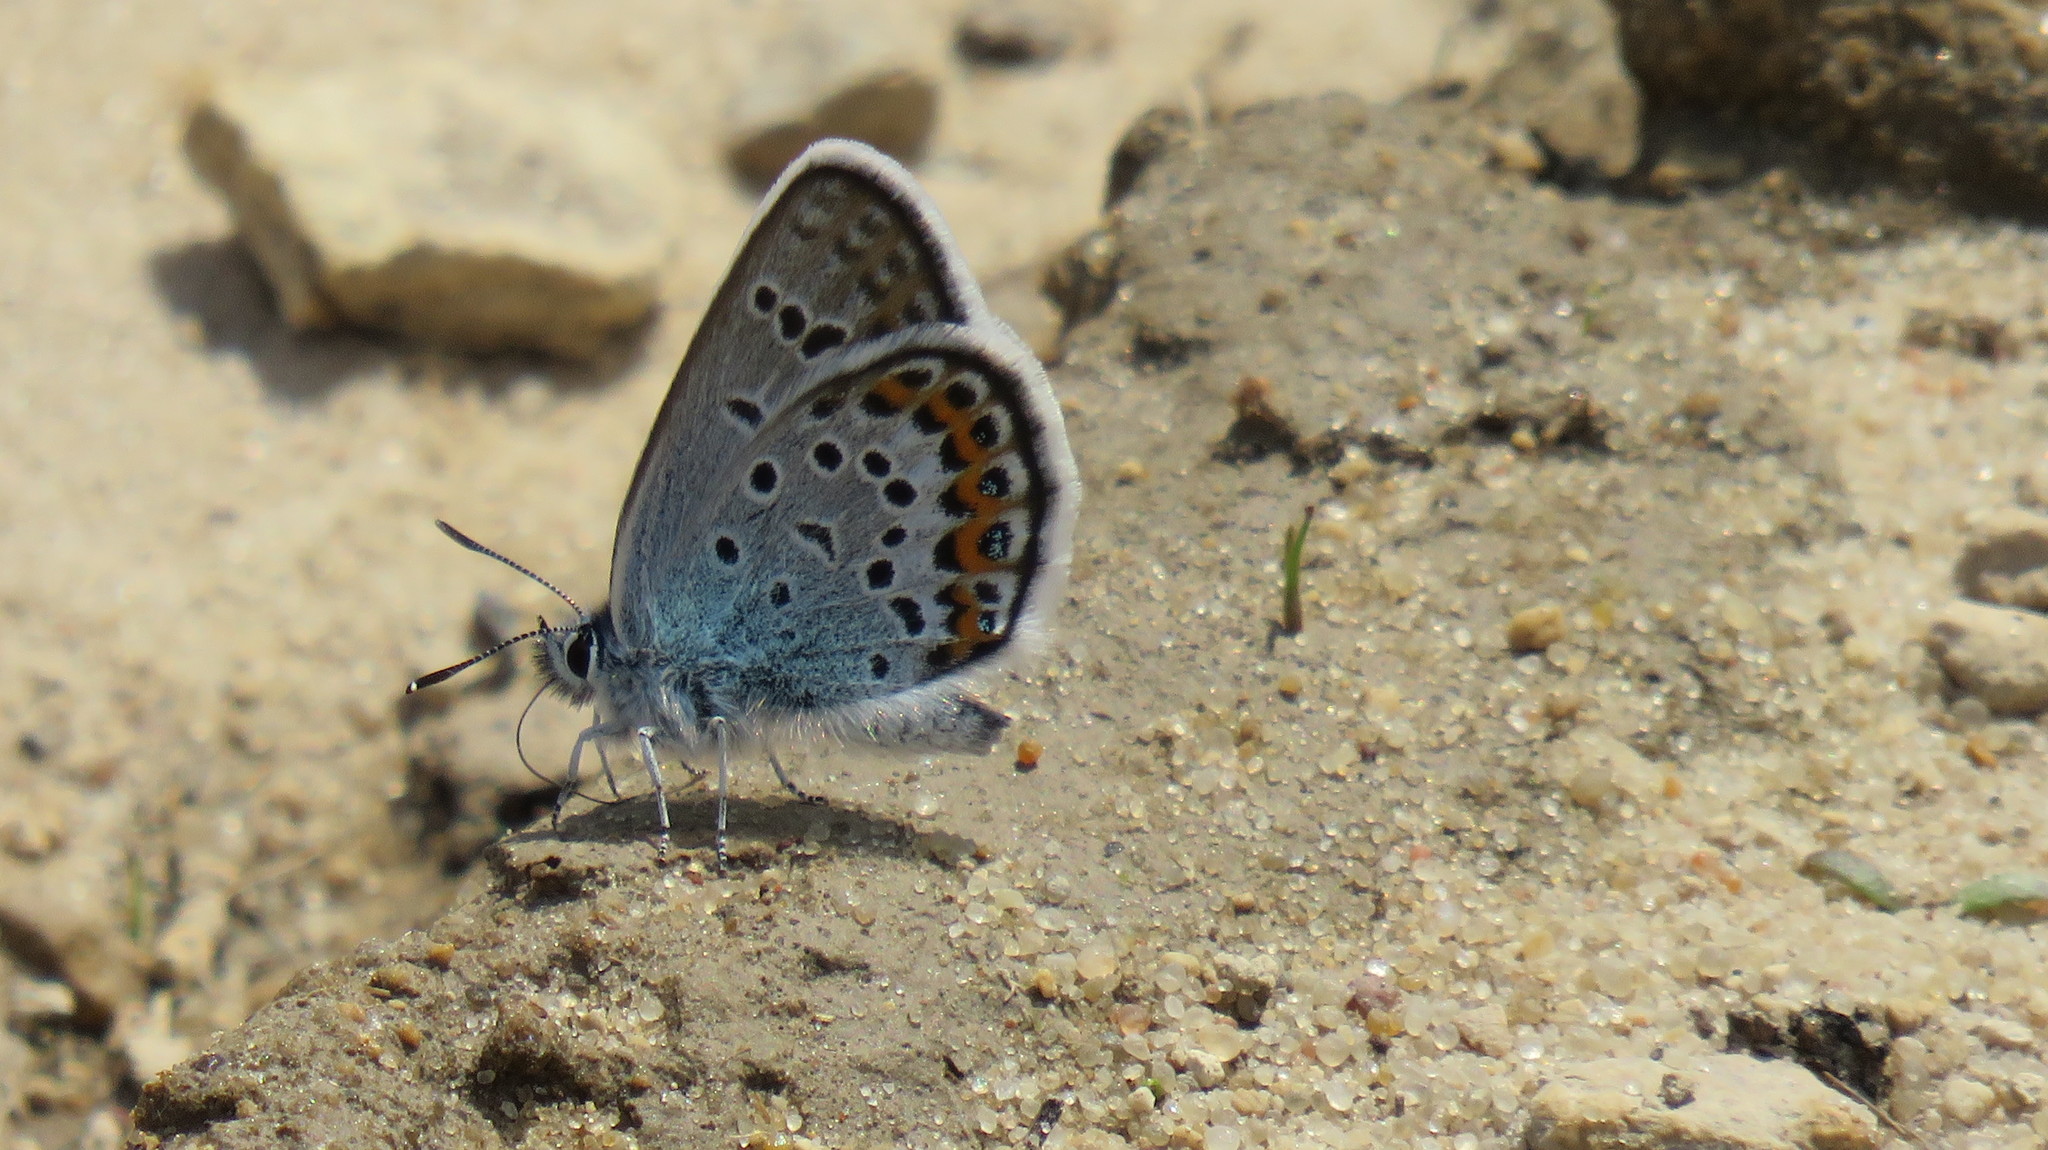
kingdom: Animalia
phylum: Arthropoda
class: Insecta
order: Lepidoptera
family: Lycaenidae
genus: Plebejus
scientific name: Plebejus argus
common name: Silver-studded blue
